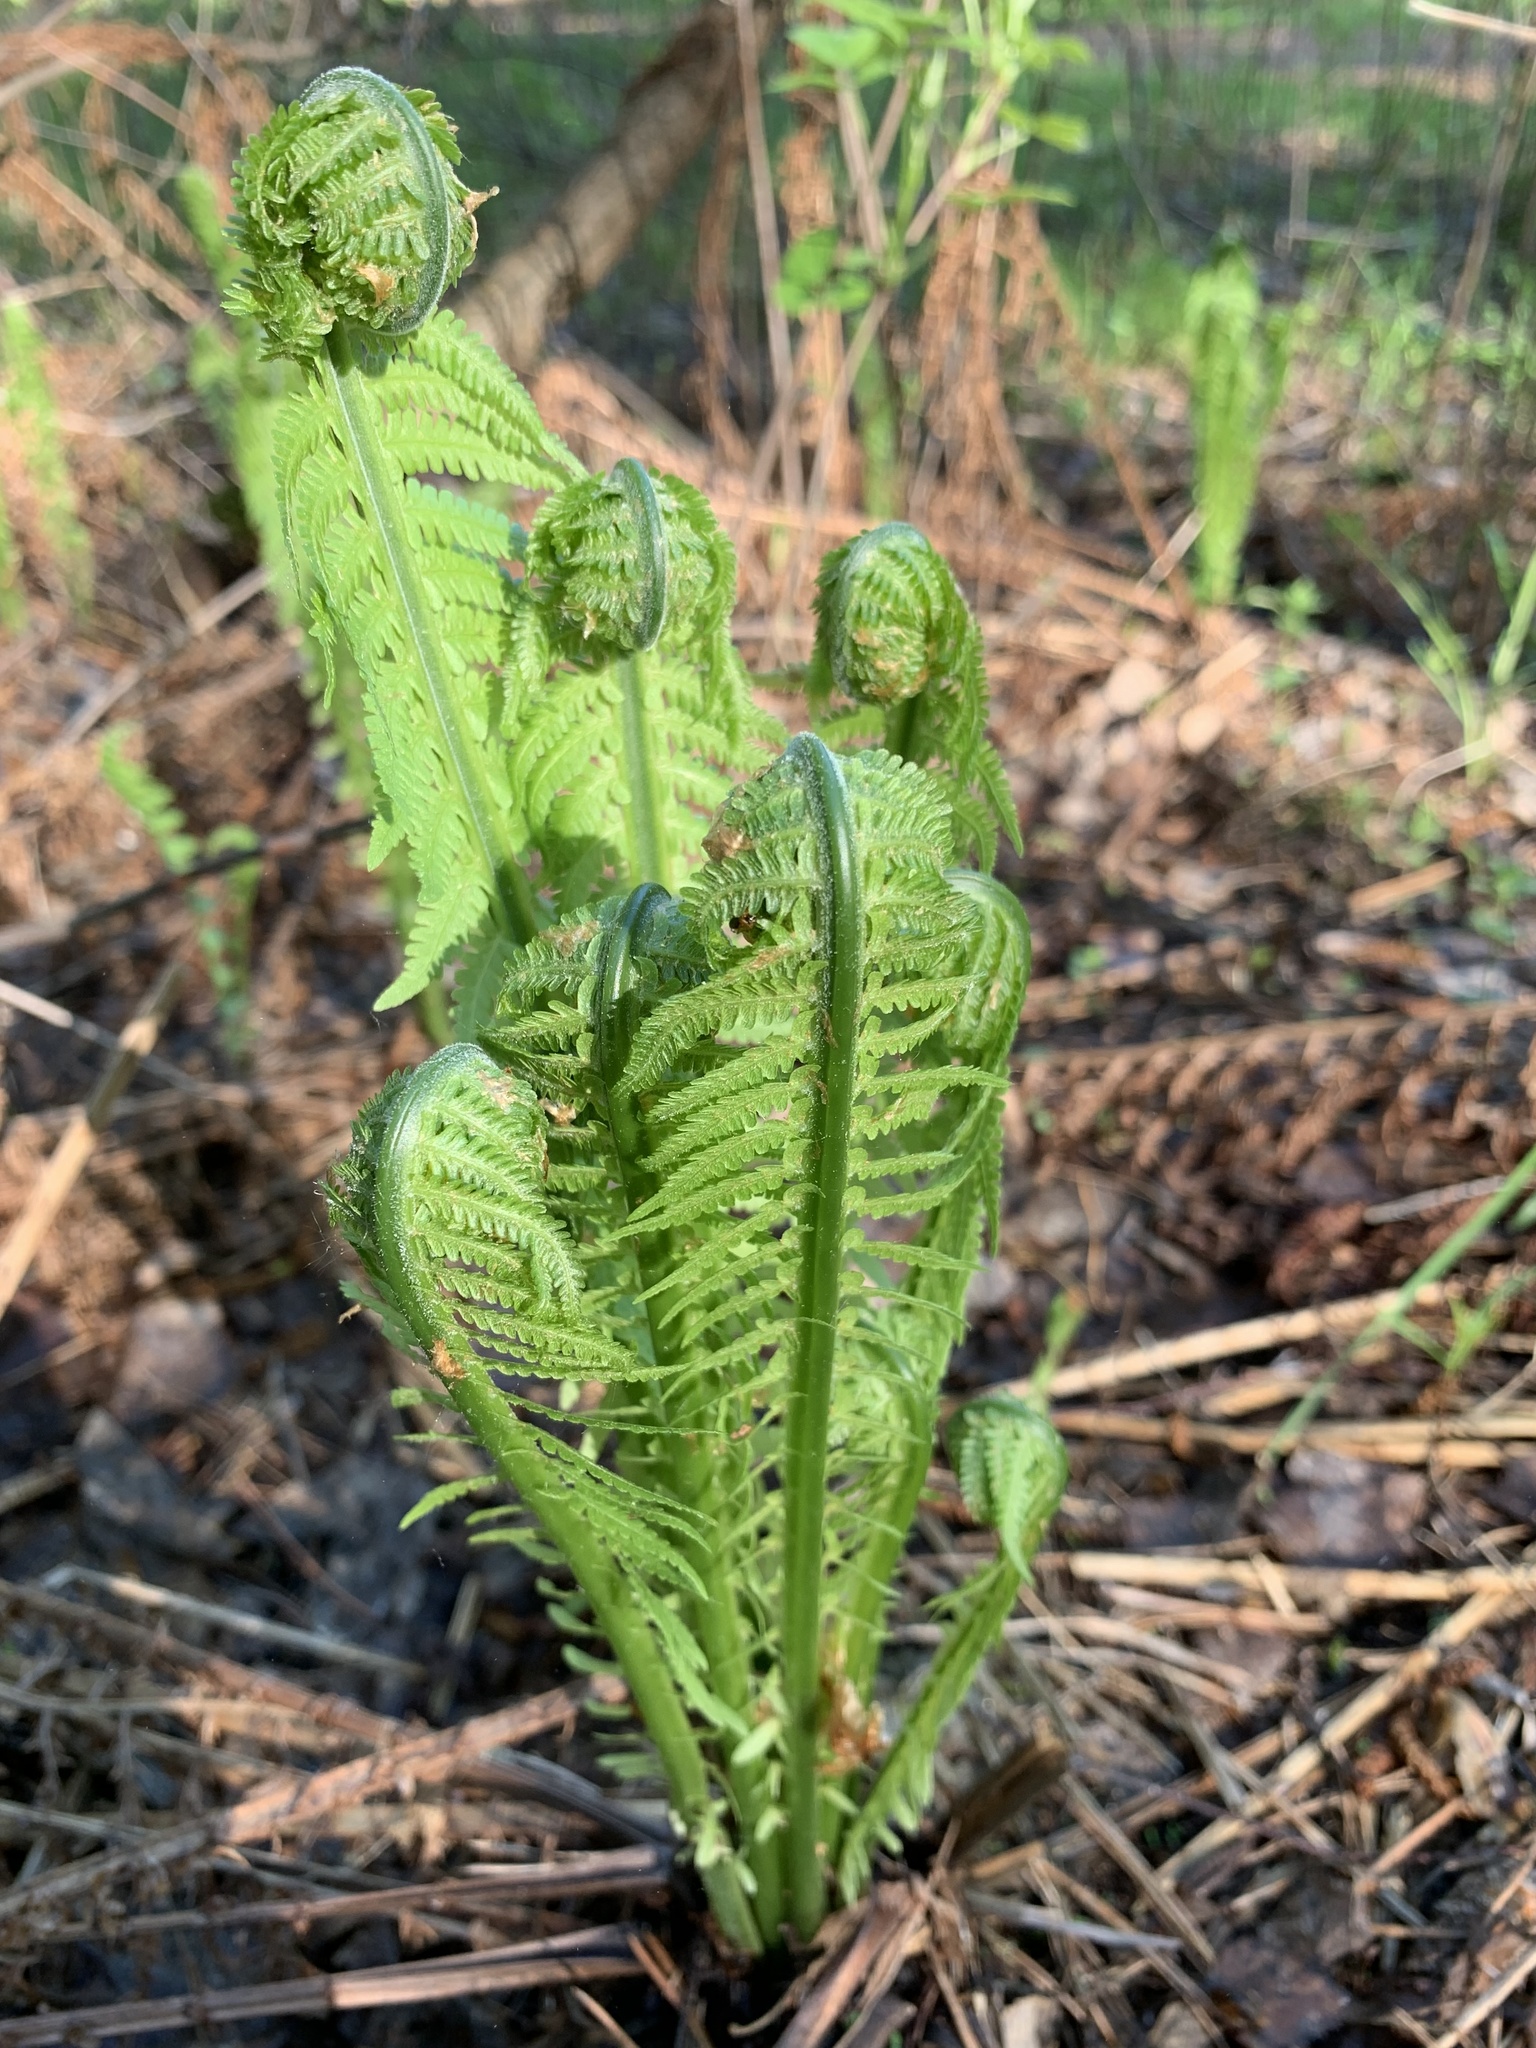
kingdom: Plantae
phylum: Tracheophyta
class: Polypodiopsida
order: Polypodiales
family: Onocleaceae
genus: Matteuccia
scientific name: Matteuccia struthiopteris
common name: Ostrich fern
